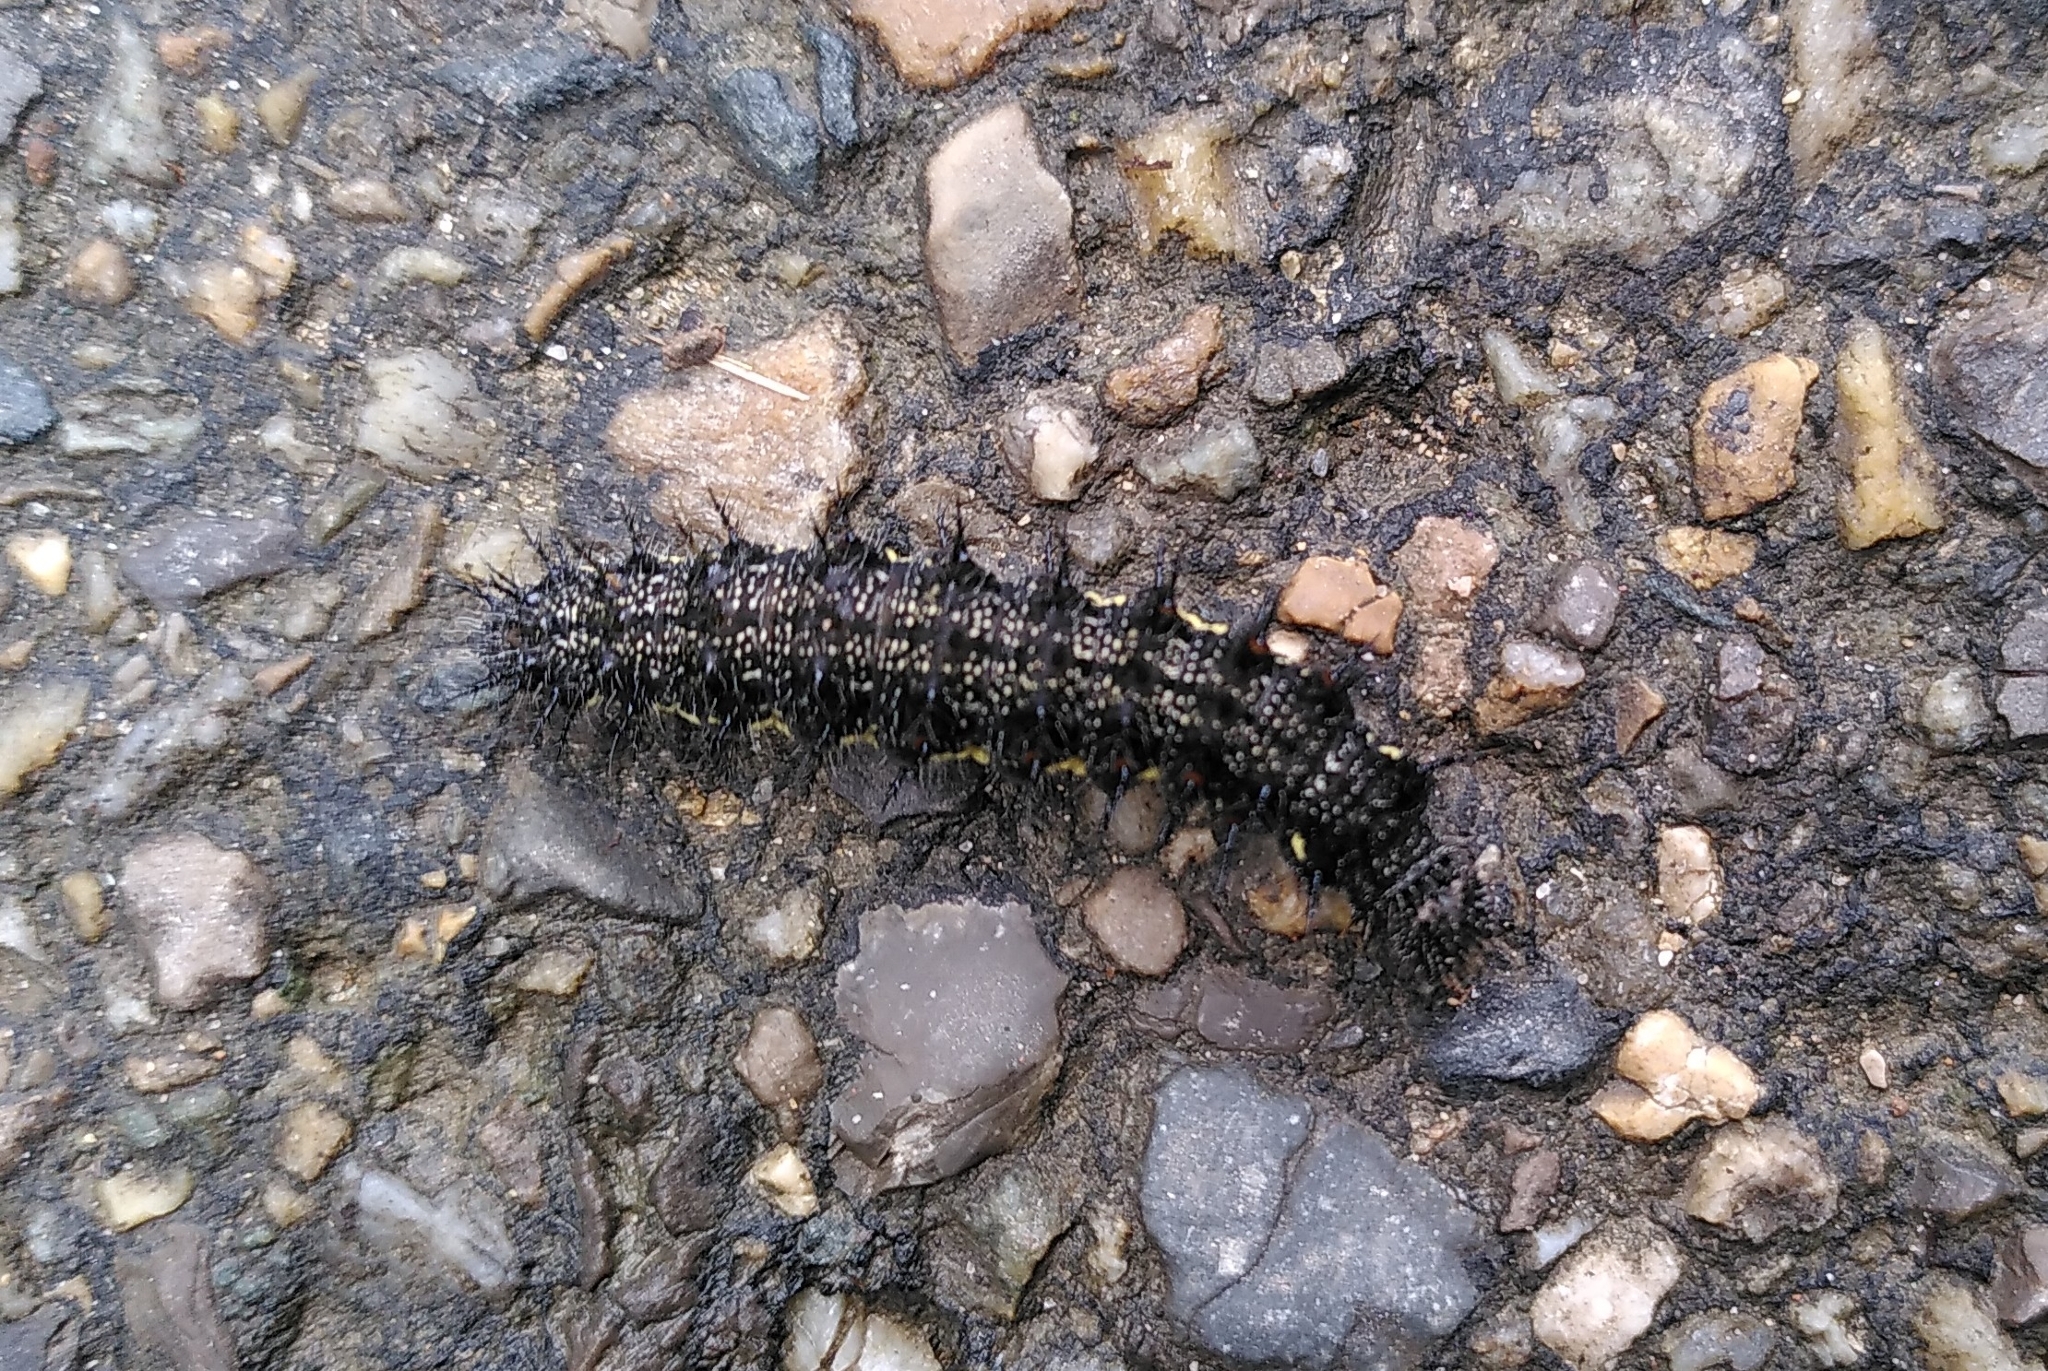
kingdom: Animalia
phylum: Arthropoda
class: Insecta
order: Lepidoptera
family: Nymphalidae
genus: Vanessa
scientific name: Vanessa atalanta
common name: Red admiral
